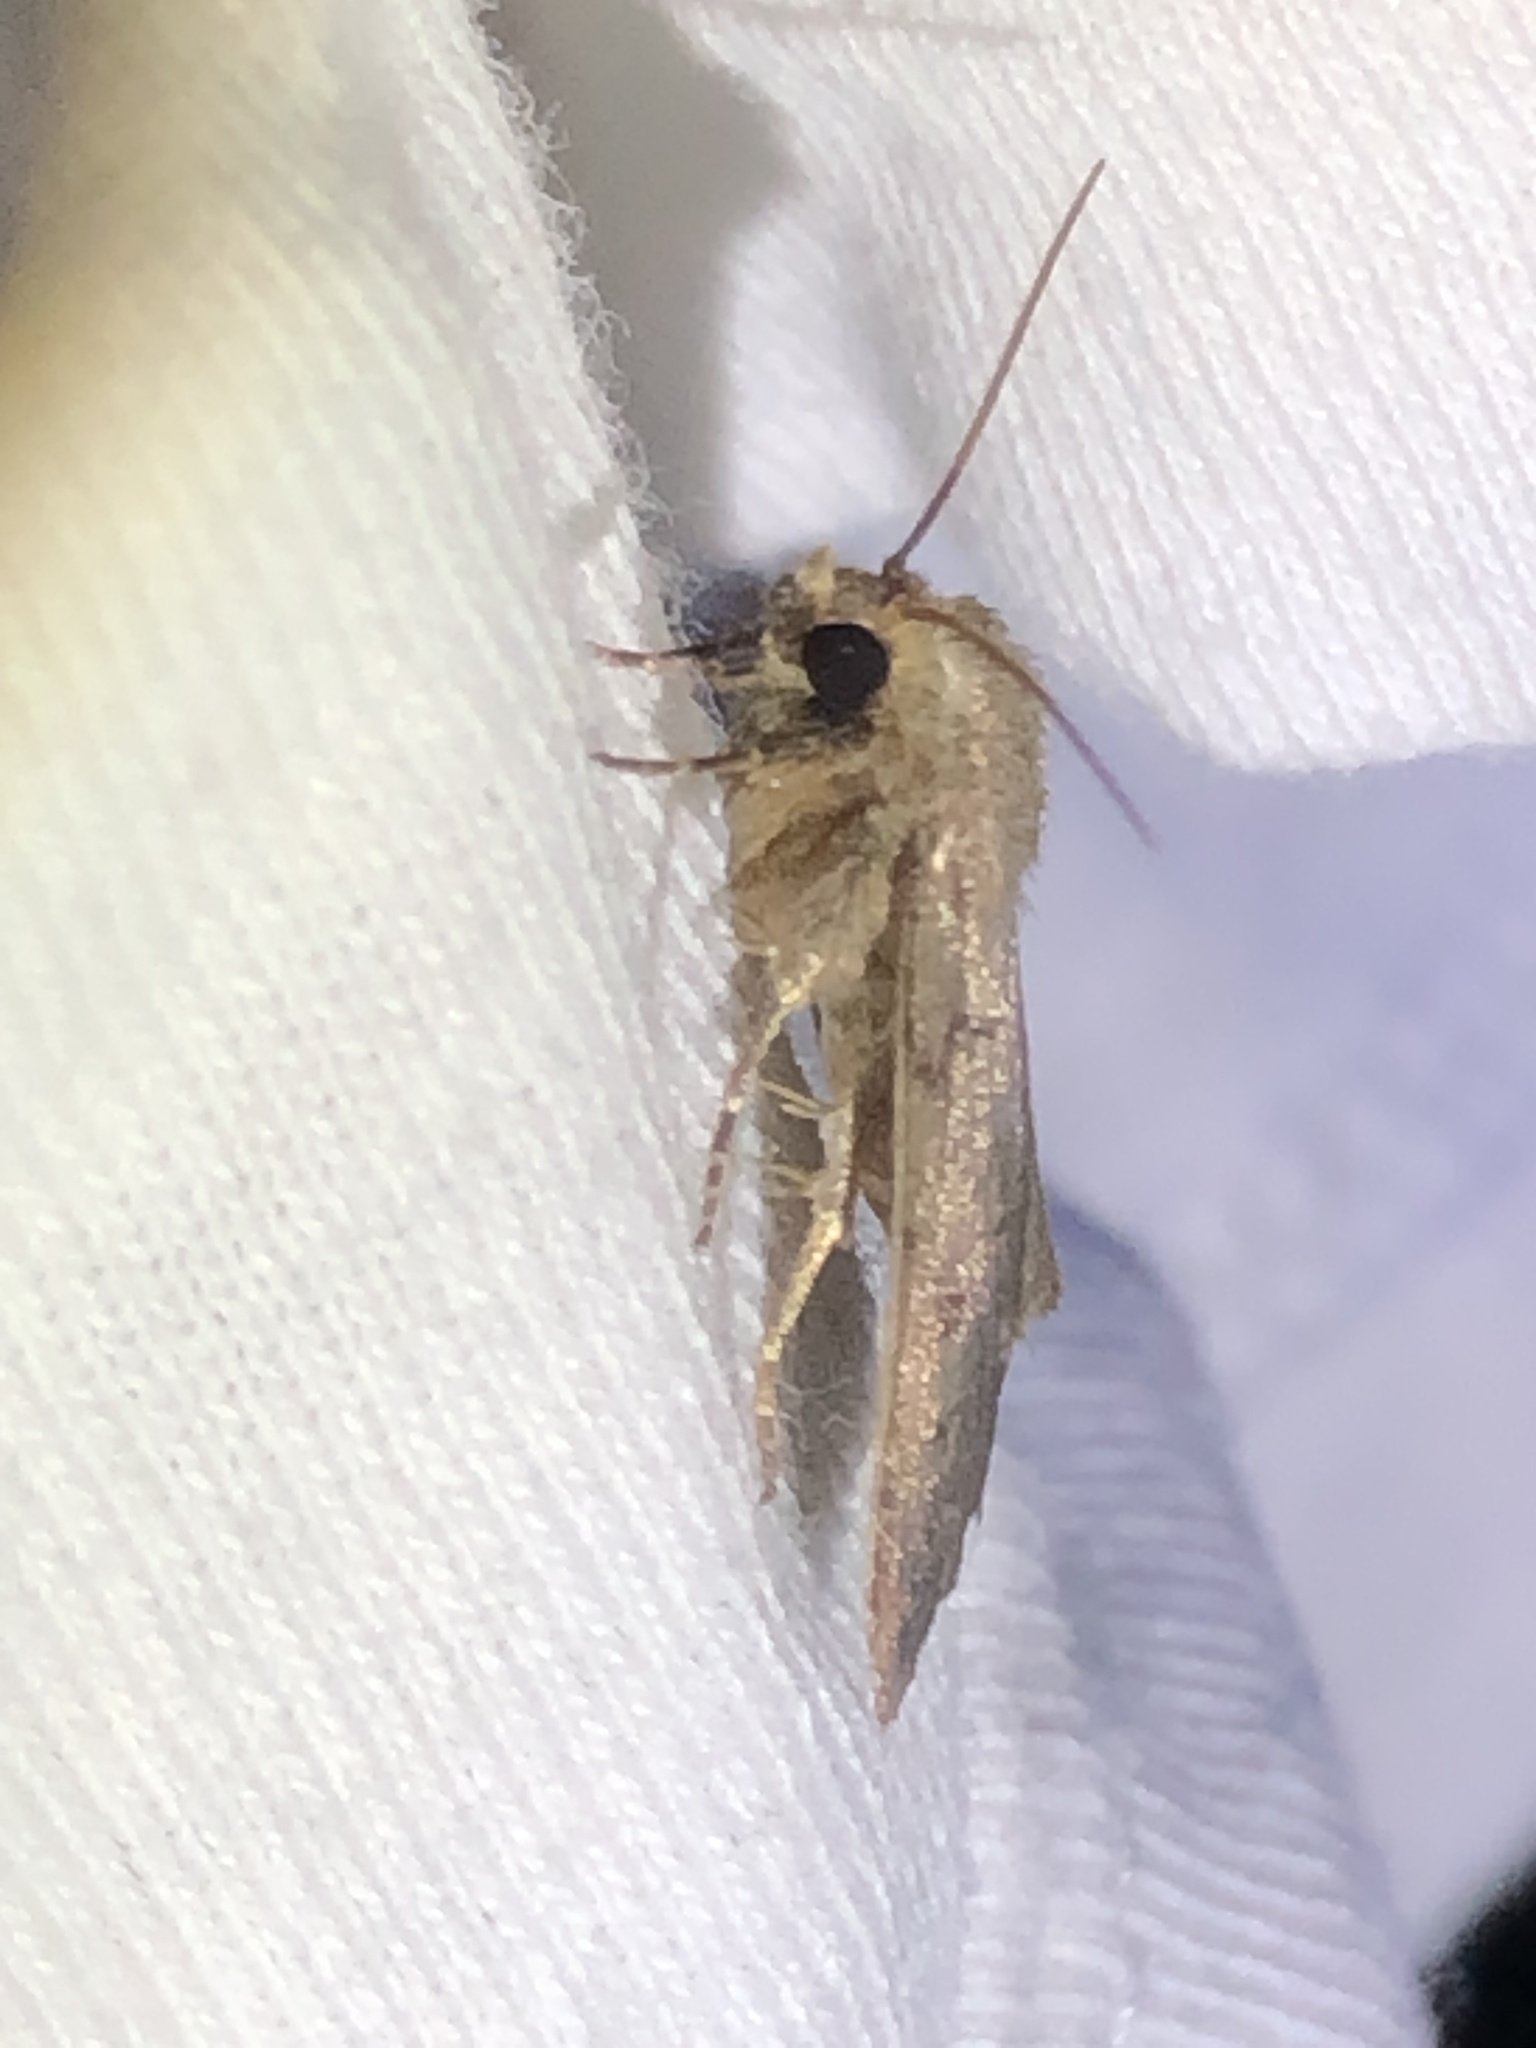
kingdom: Animalia
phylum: Arthropoda
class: Insecta
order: Lepidoptera
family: Noctuidae
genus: Athetis
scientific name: Athetis tarda
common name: Slowpoke moth
